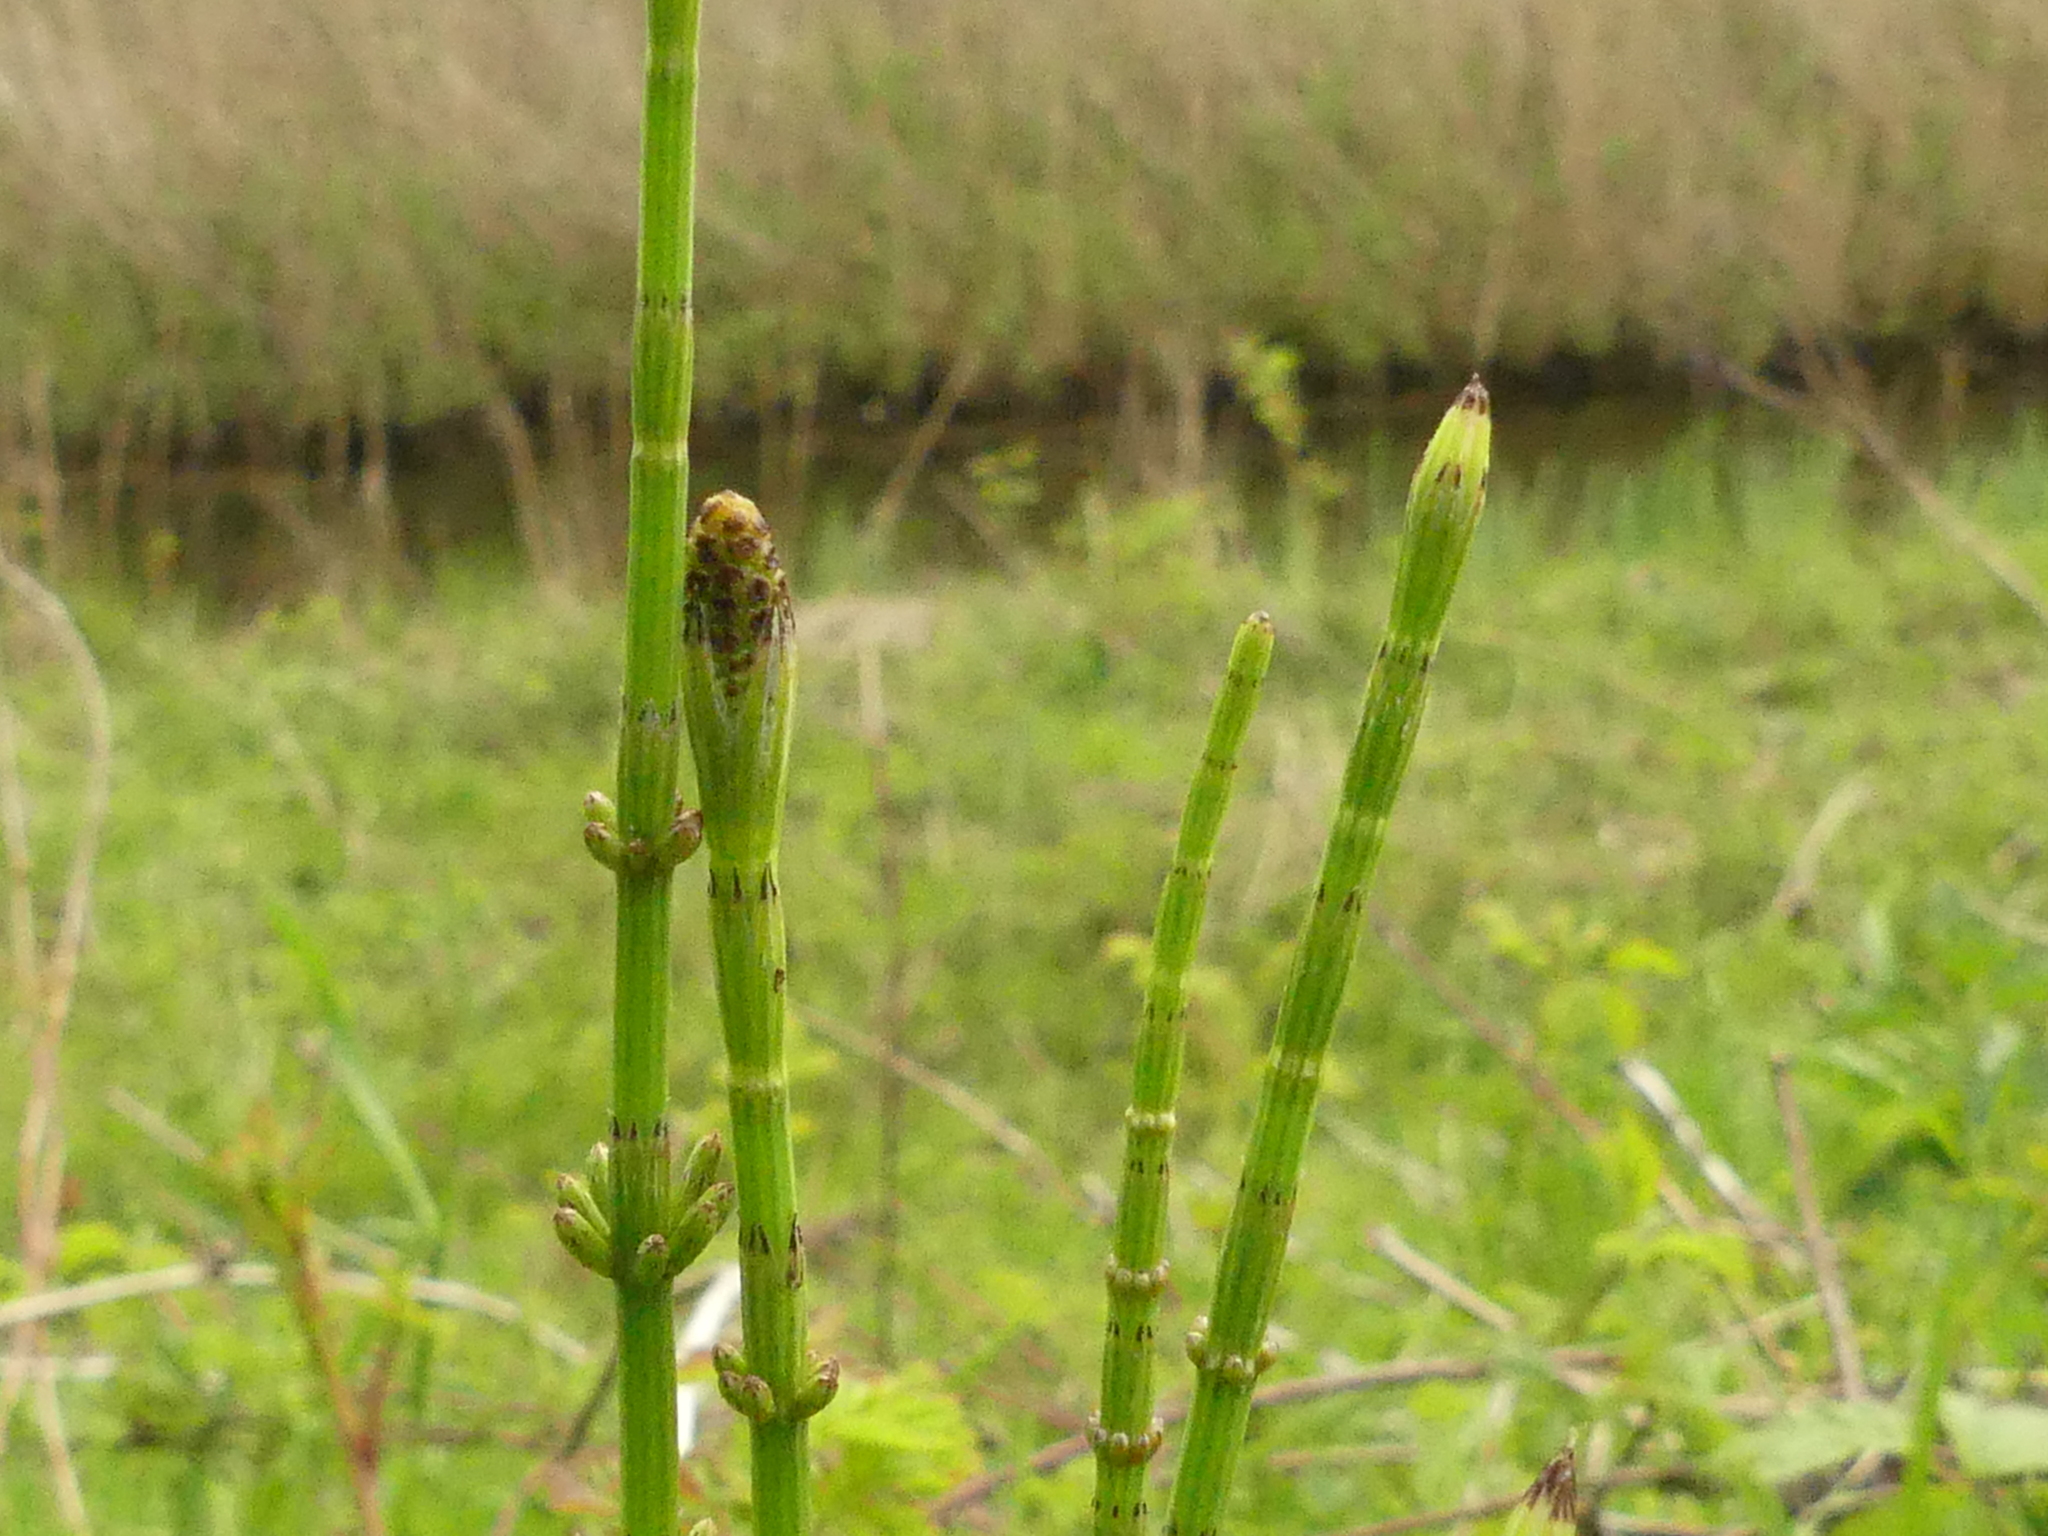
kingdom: Plantae
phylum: Tracheophyta
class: Polypodiopsida
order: Equisetales
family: Equisetaceae
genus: Equisetum
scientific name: Equisetum palustre
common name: Marsh horsetail
